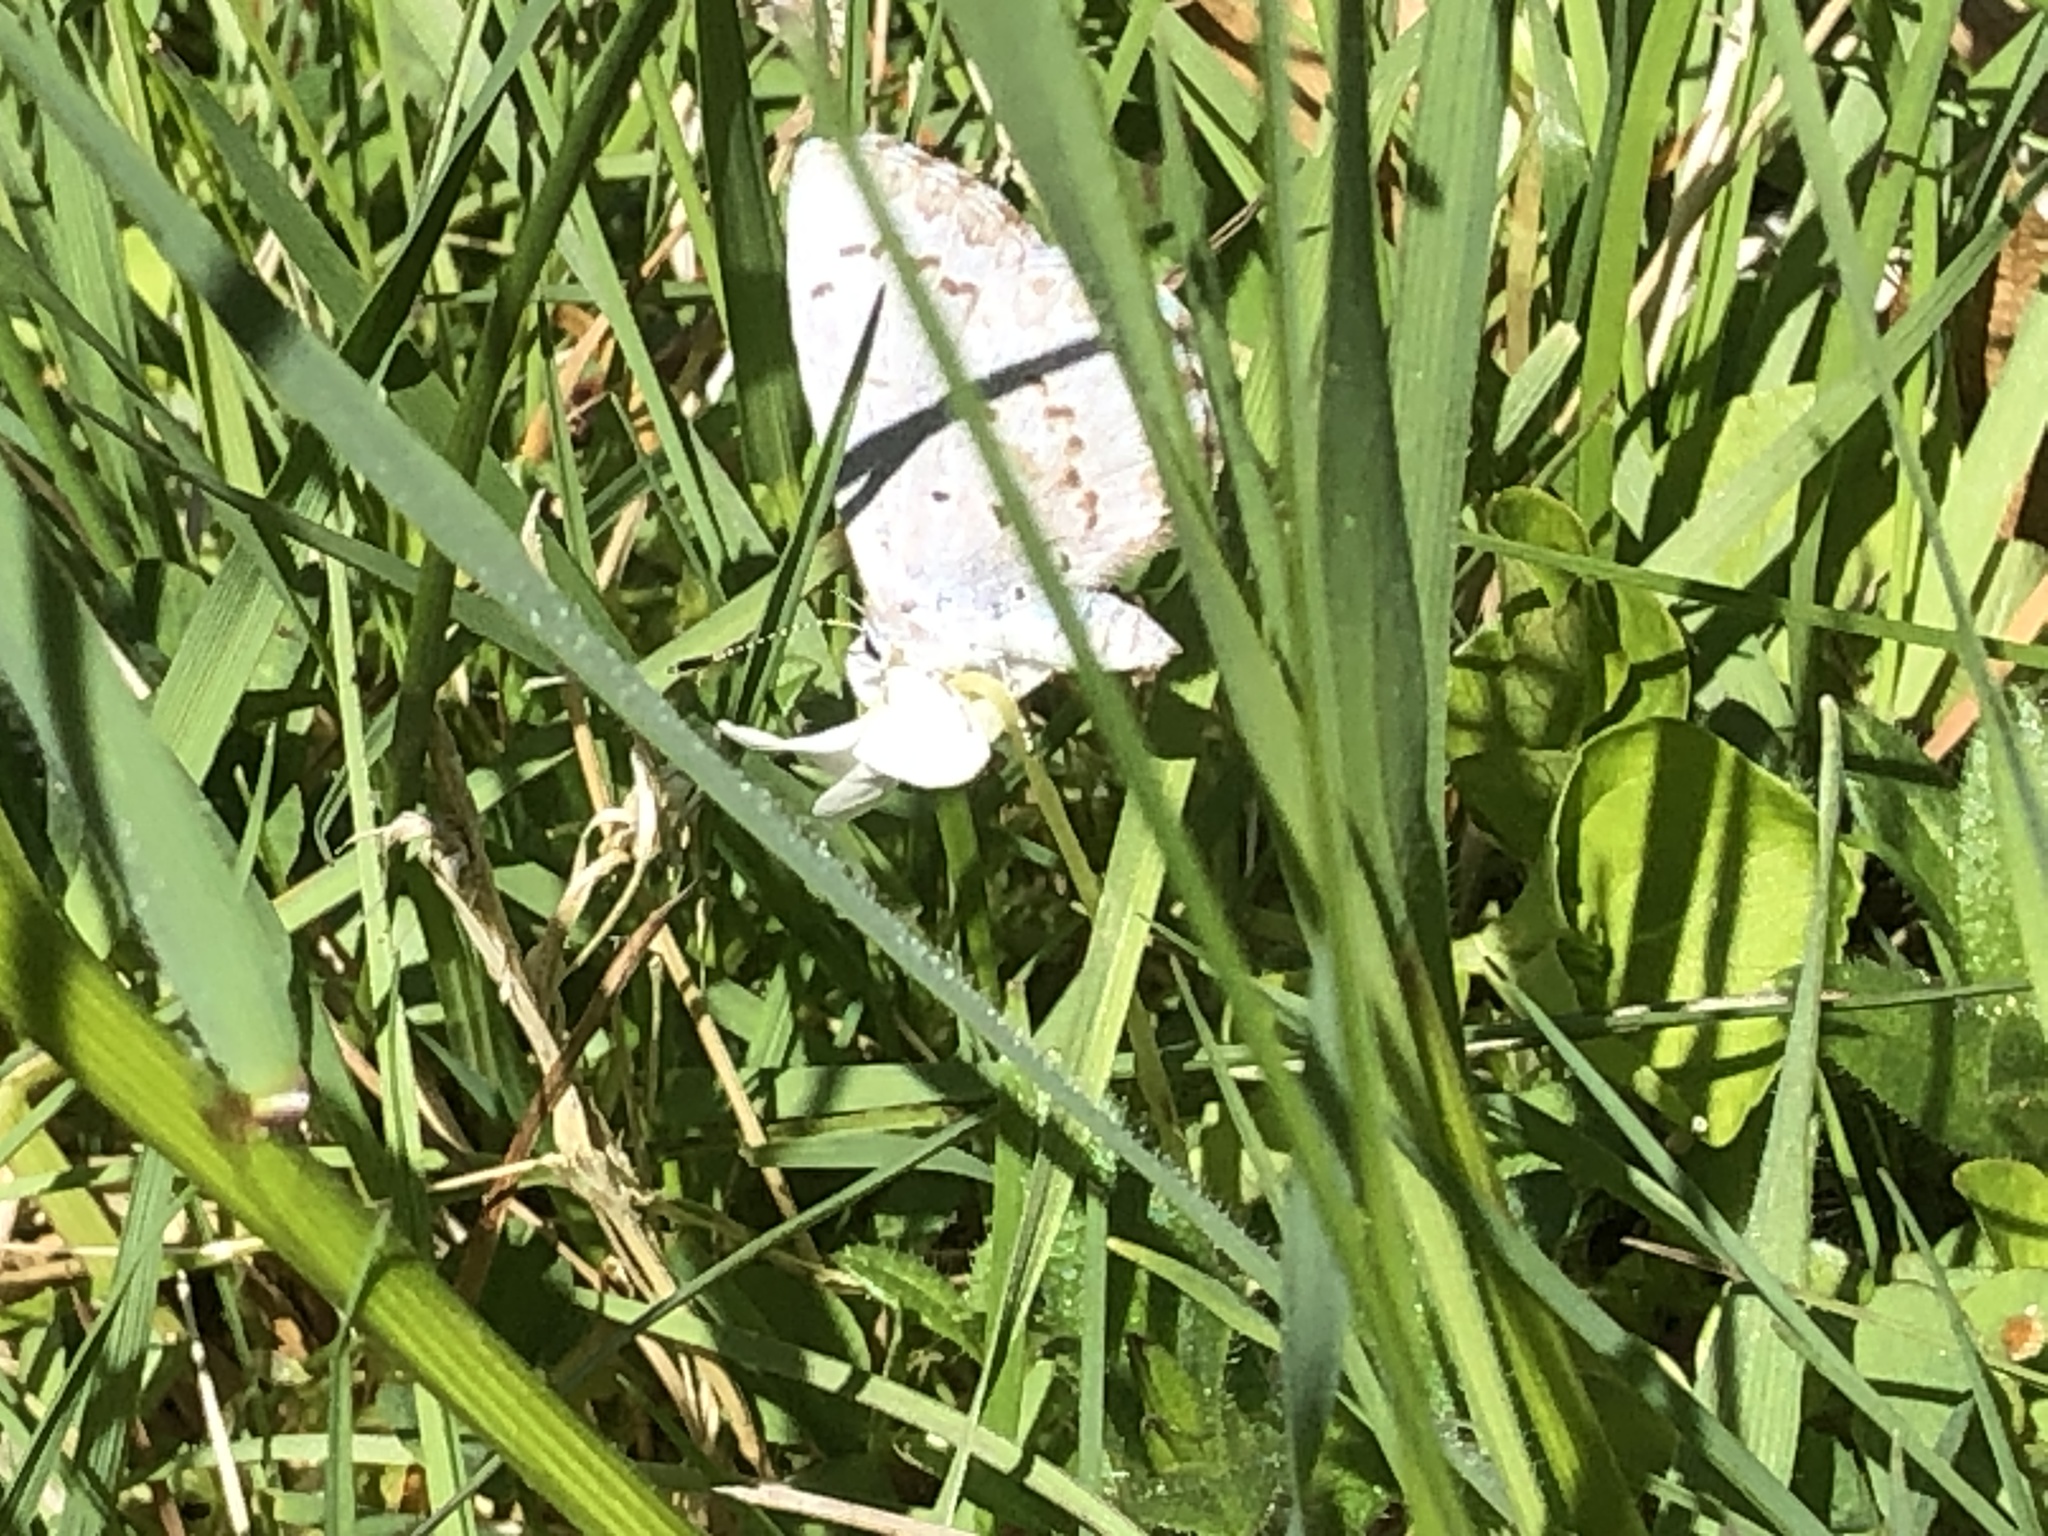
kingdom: Animalia
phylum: Arthropoda
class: Insecta
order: Lepidoptera
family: Lycaenidae
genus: Celastrina
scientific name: Celastrina ladon
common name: Spring azure
